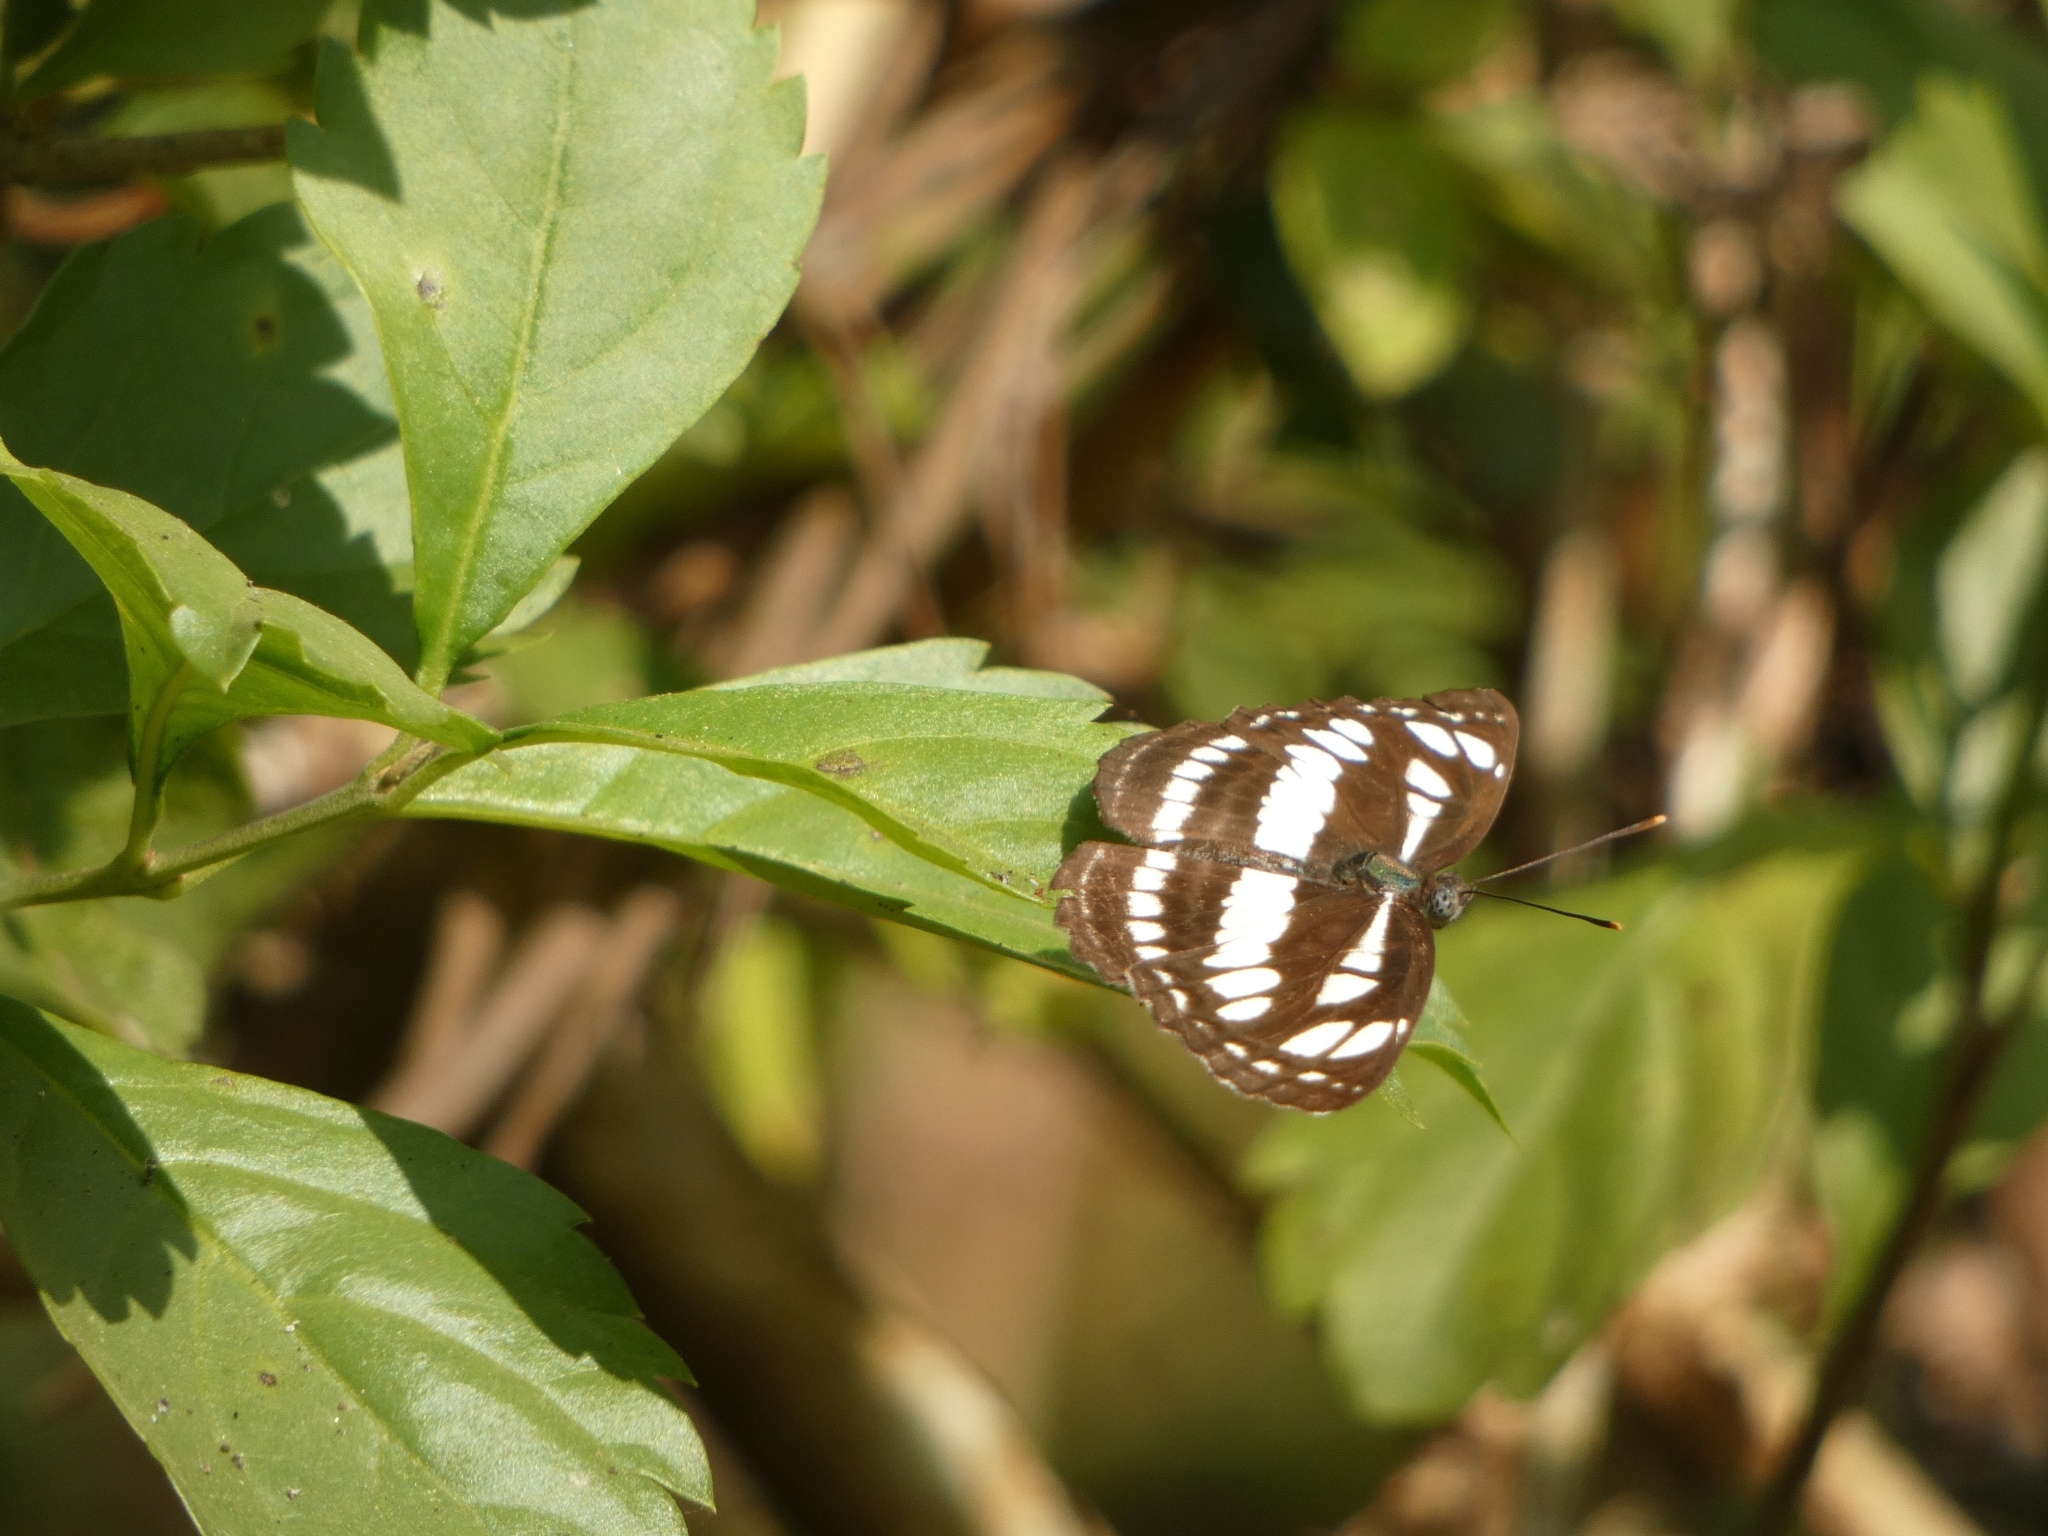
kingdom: Animalia
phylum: Arthropoda
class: Insecta
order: Lepidoptera
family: Nymphalidae
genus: Neptis
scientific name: Neptis hylas
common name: Common sailer
